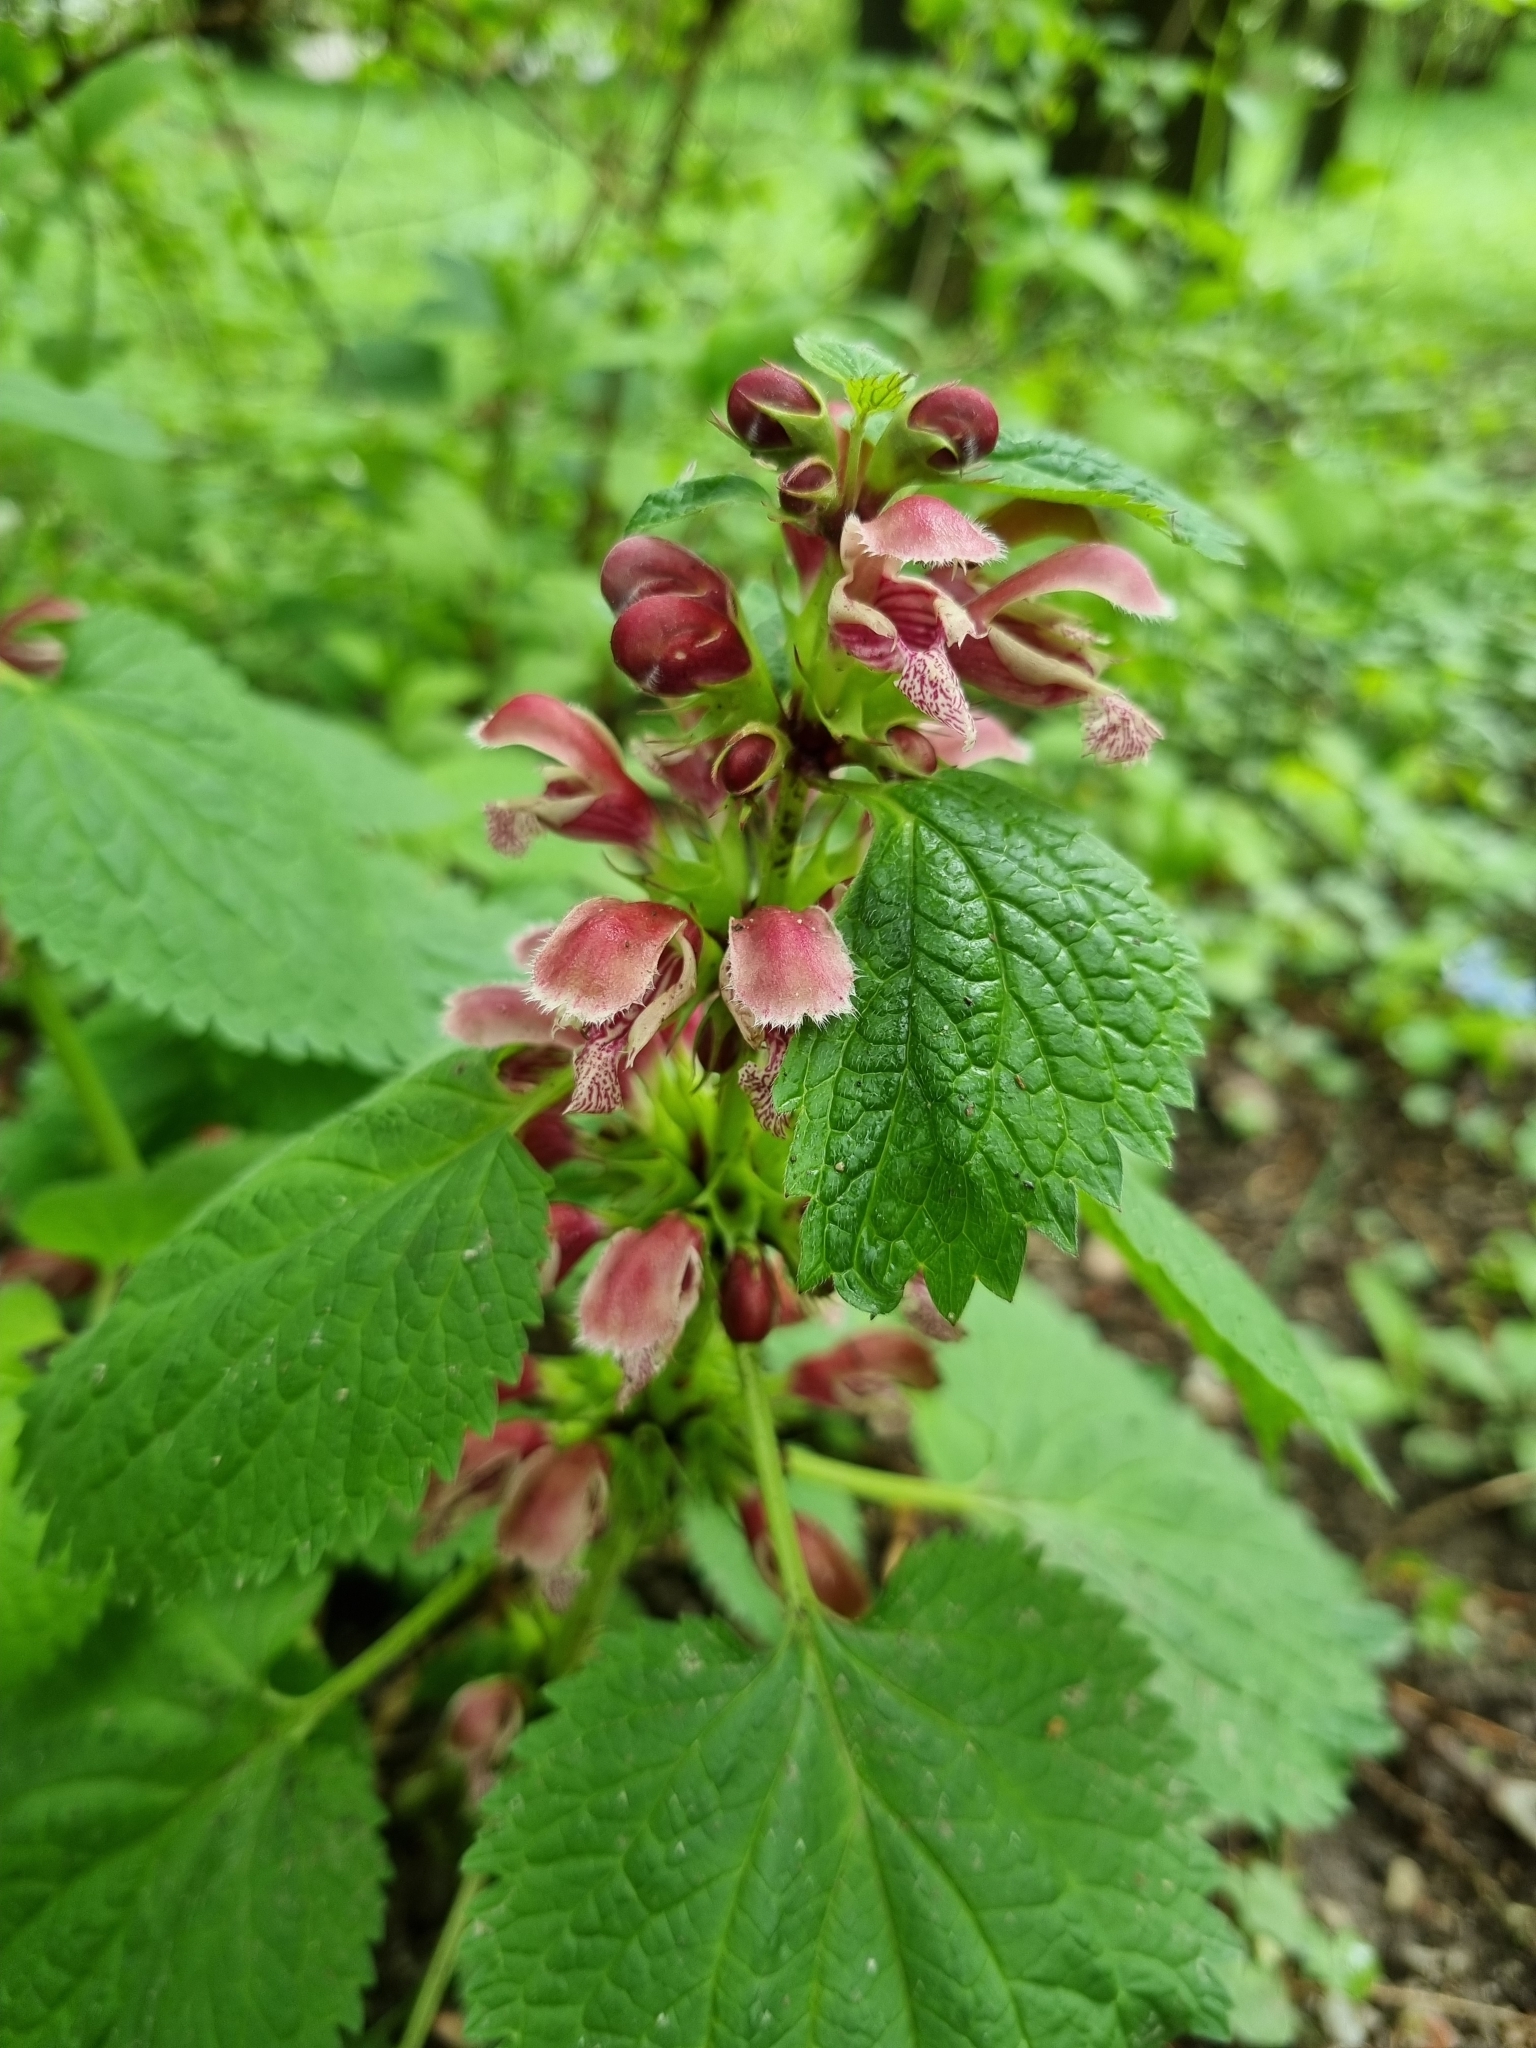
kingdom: Plantae
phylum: Tracheophyta
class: Magnoliopsida
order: Lamiales
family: Lamiaceae
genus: Lamium
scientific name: Lamium orvala
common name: Balm-leaved archangel
